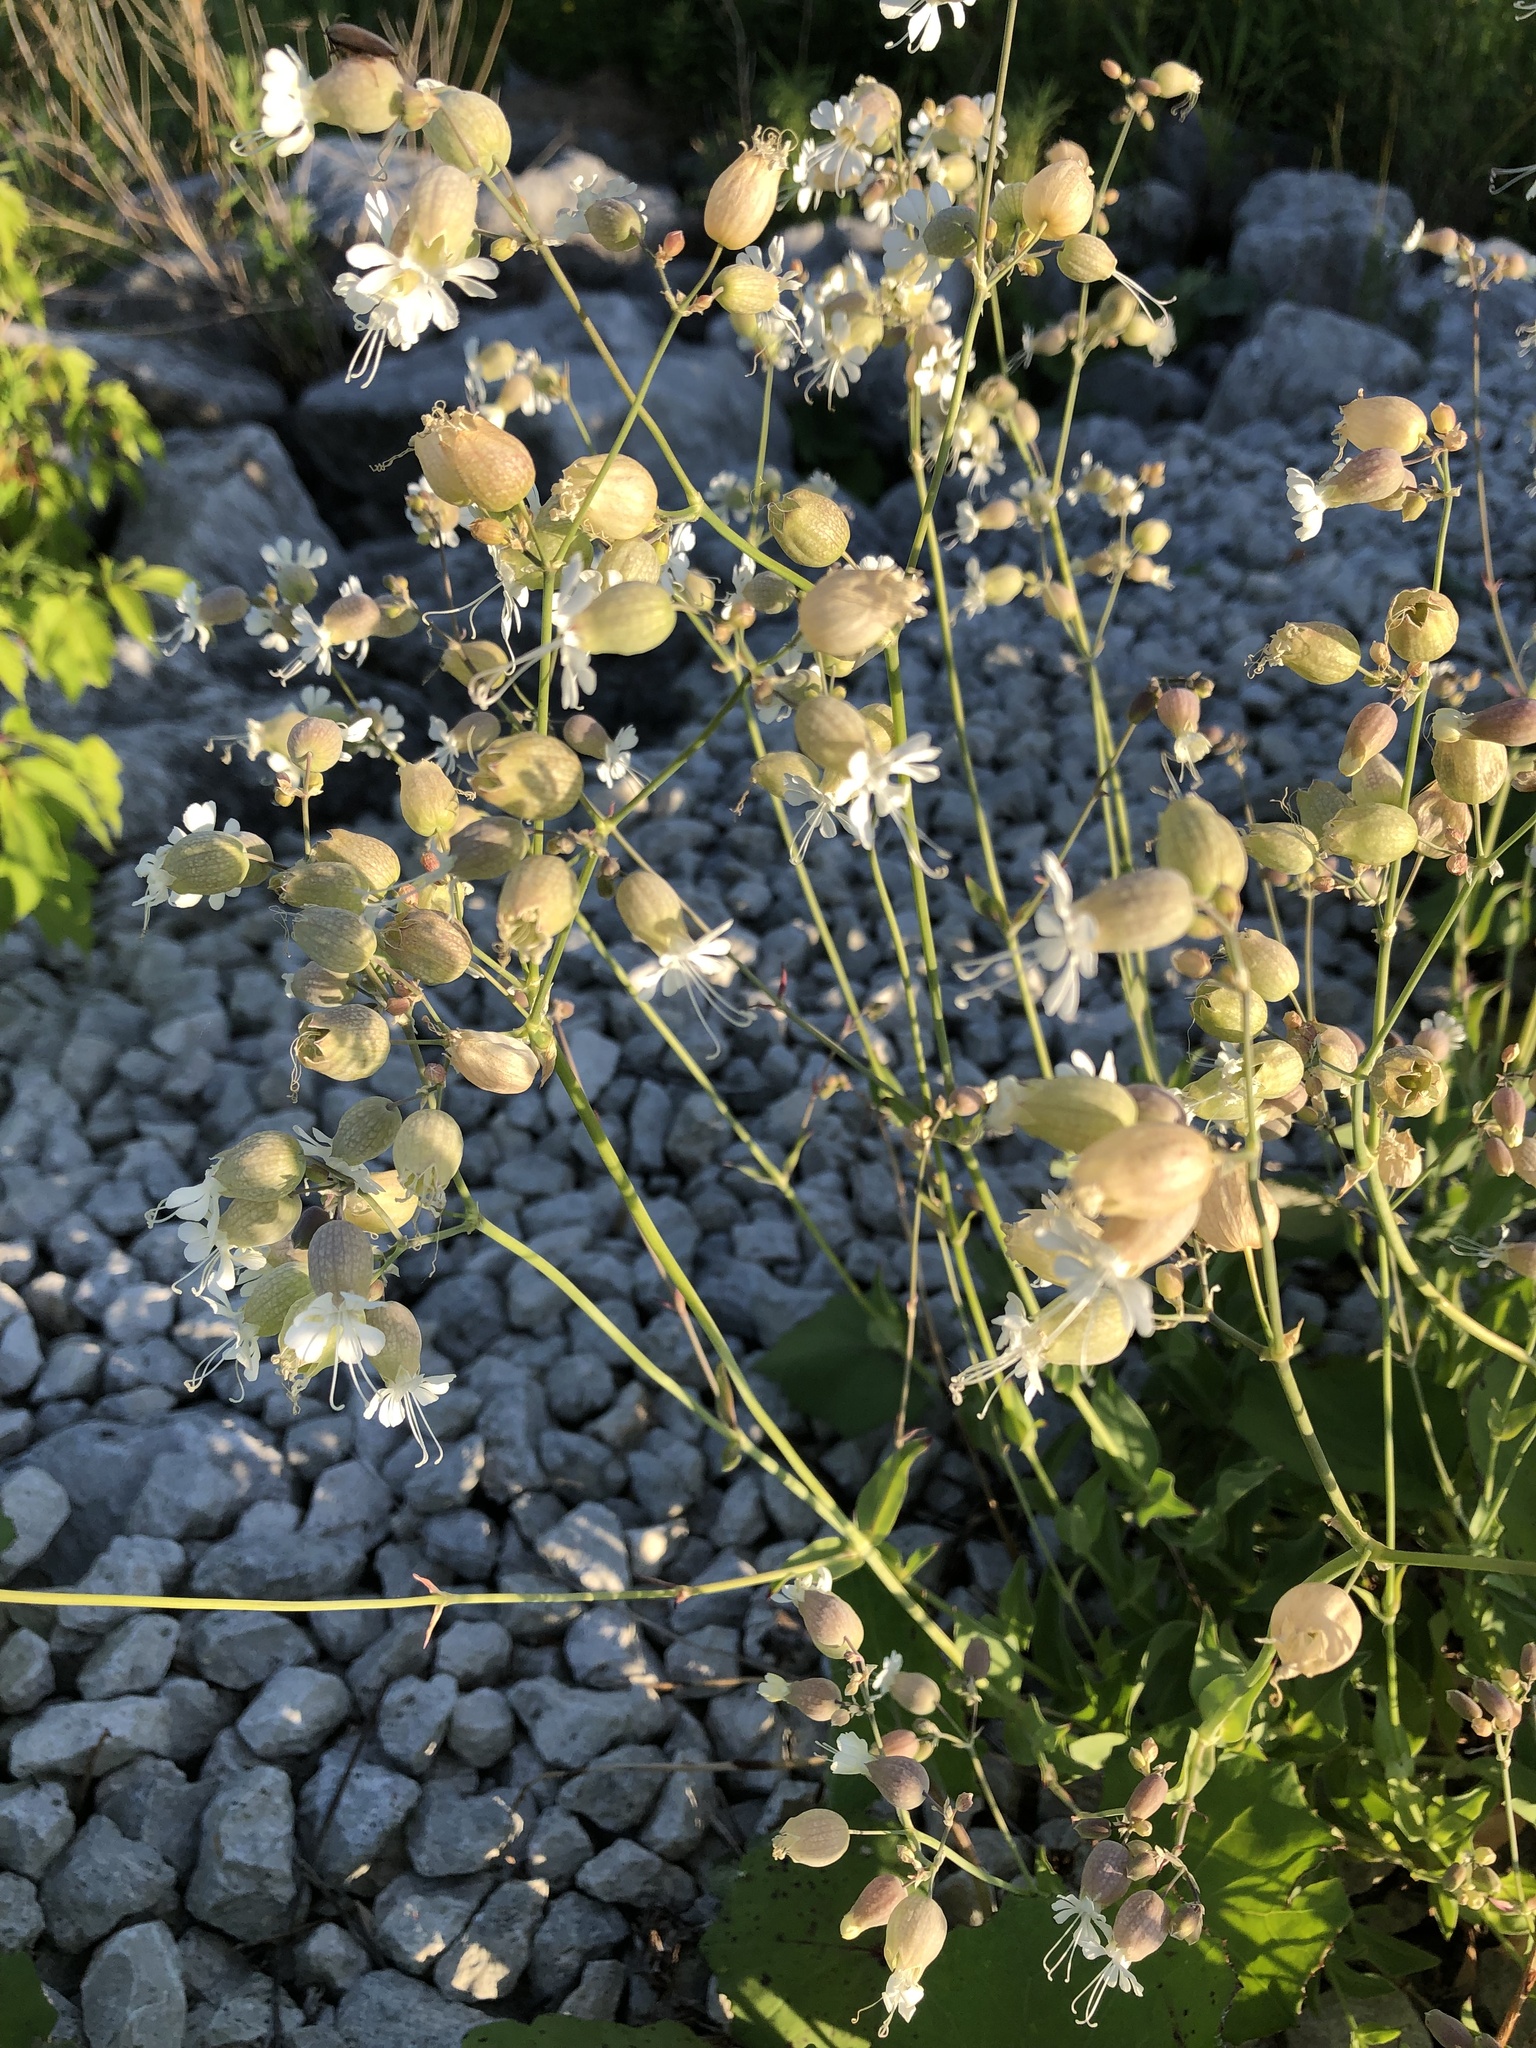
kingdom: Plantae
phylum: Tracheophyta
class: Magnoliopsida
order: Caryophyllales
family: Caryophyllaceae
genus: Silene
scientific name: Silene vulgaris
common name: Bladder campion
